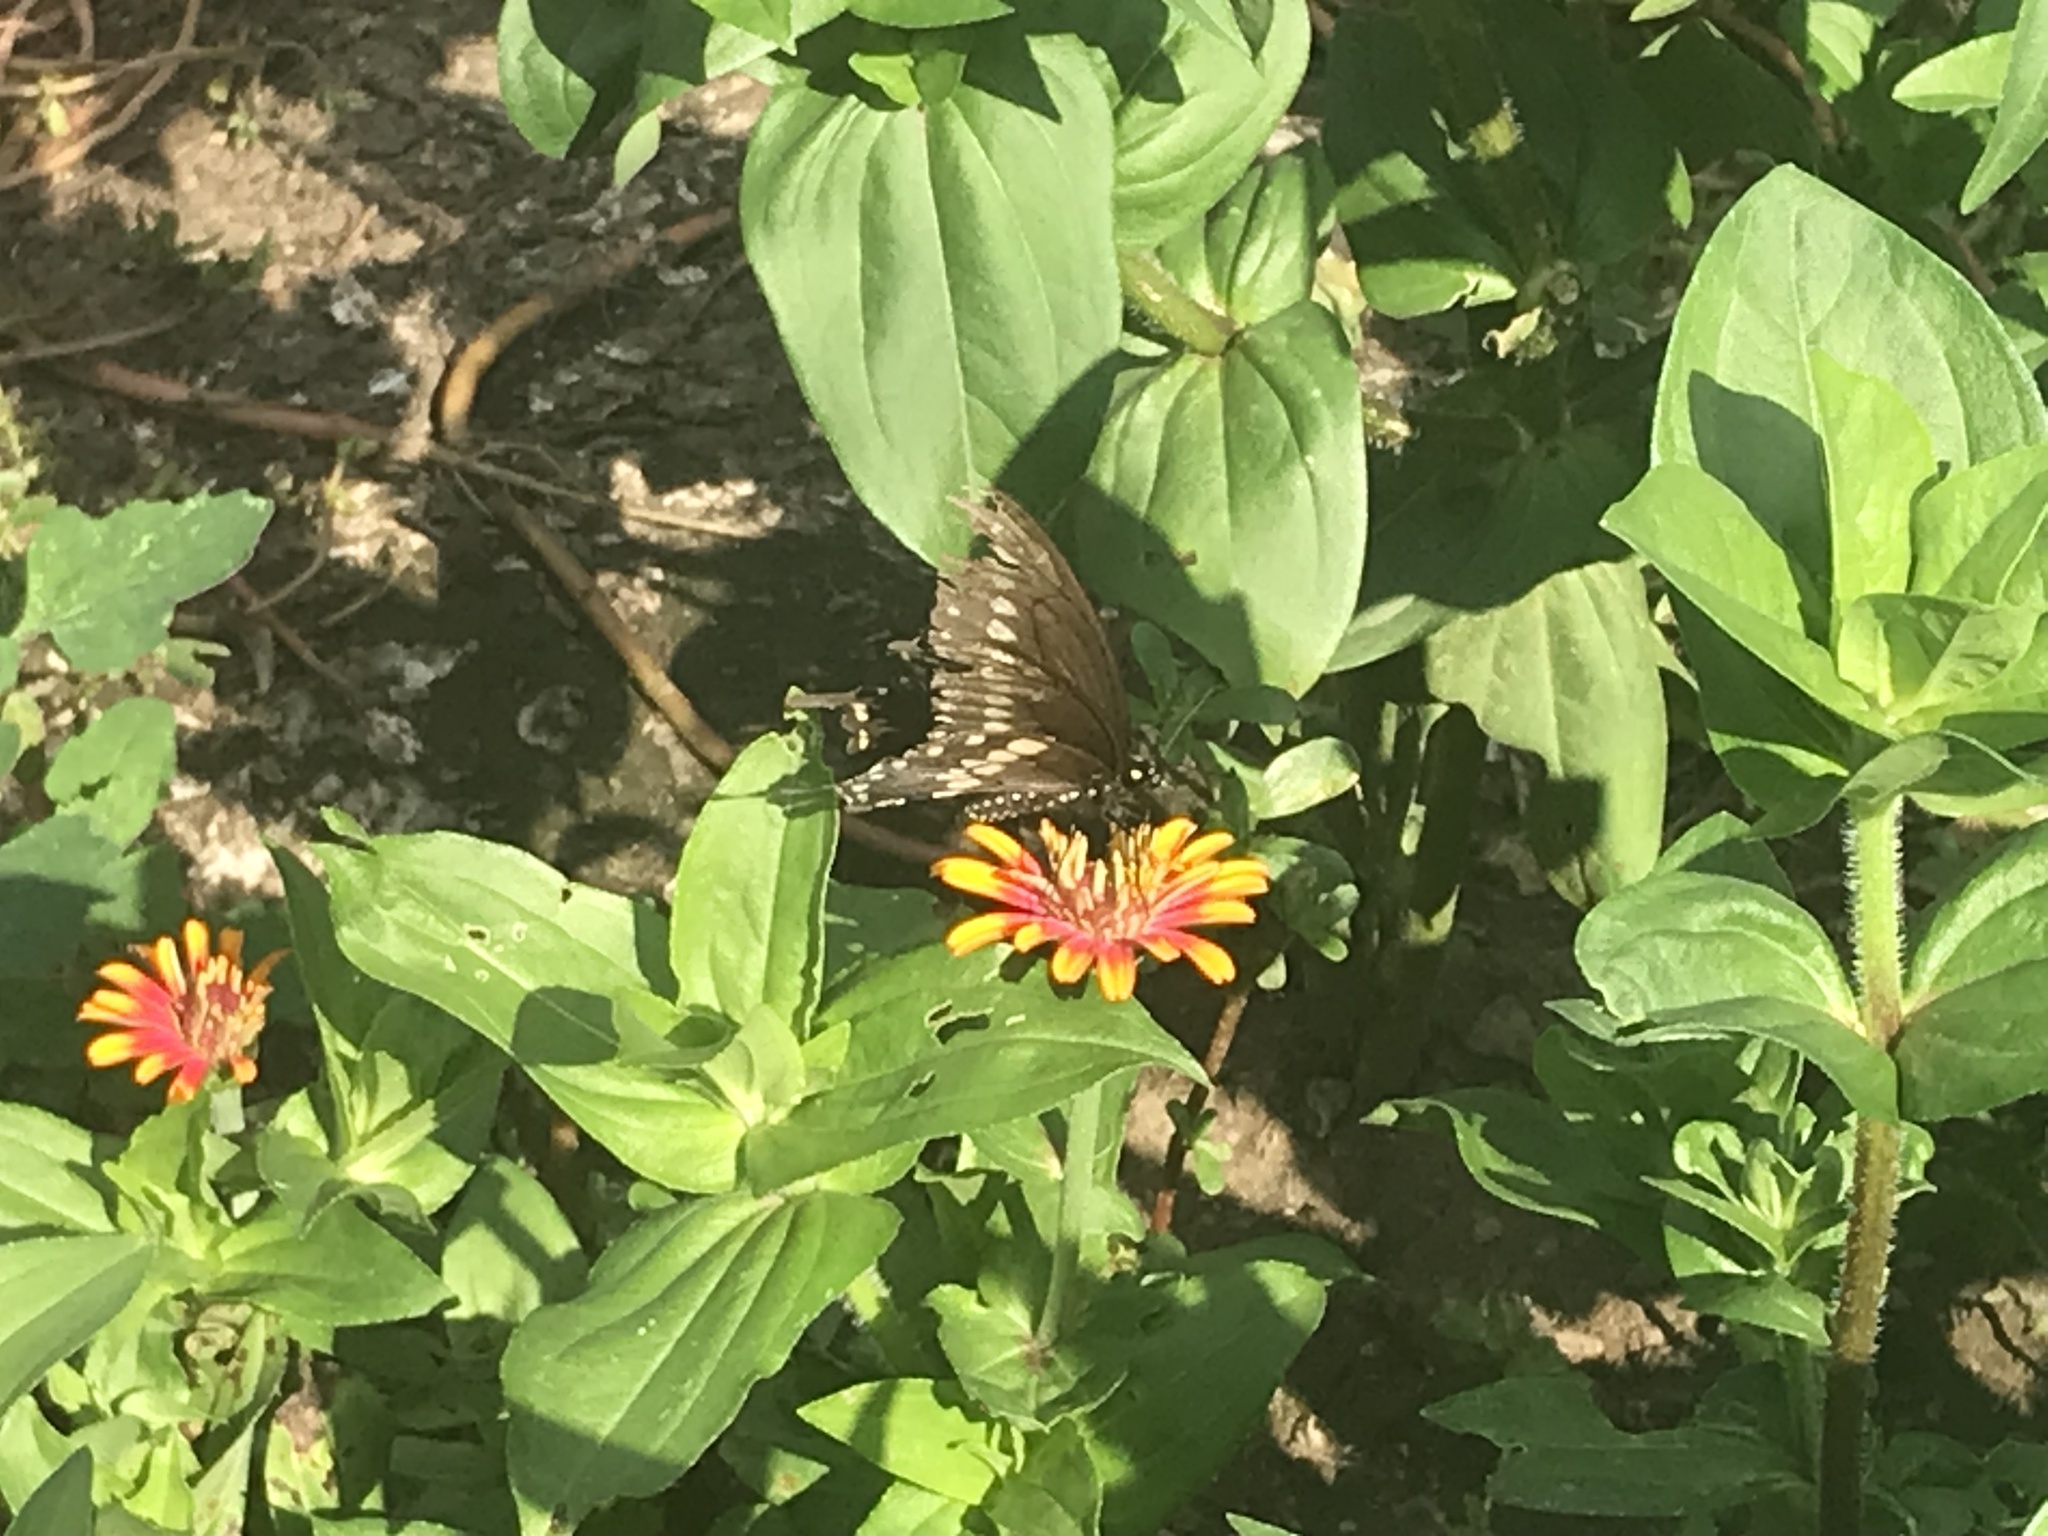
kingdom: Animalia
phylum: Arthropoda
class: Insecta
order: Lepidoptera
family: Papilionidae
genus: Papilio
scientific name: Papilio polyxenes
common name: Black swallowtail
